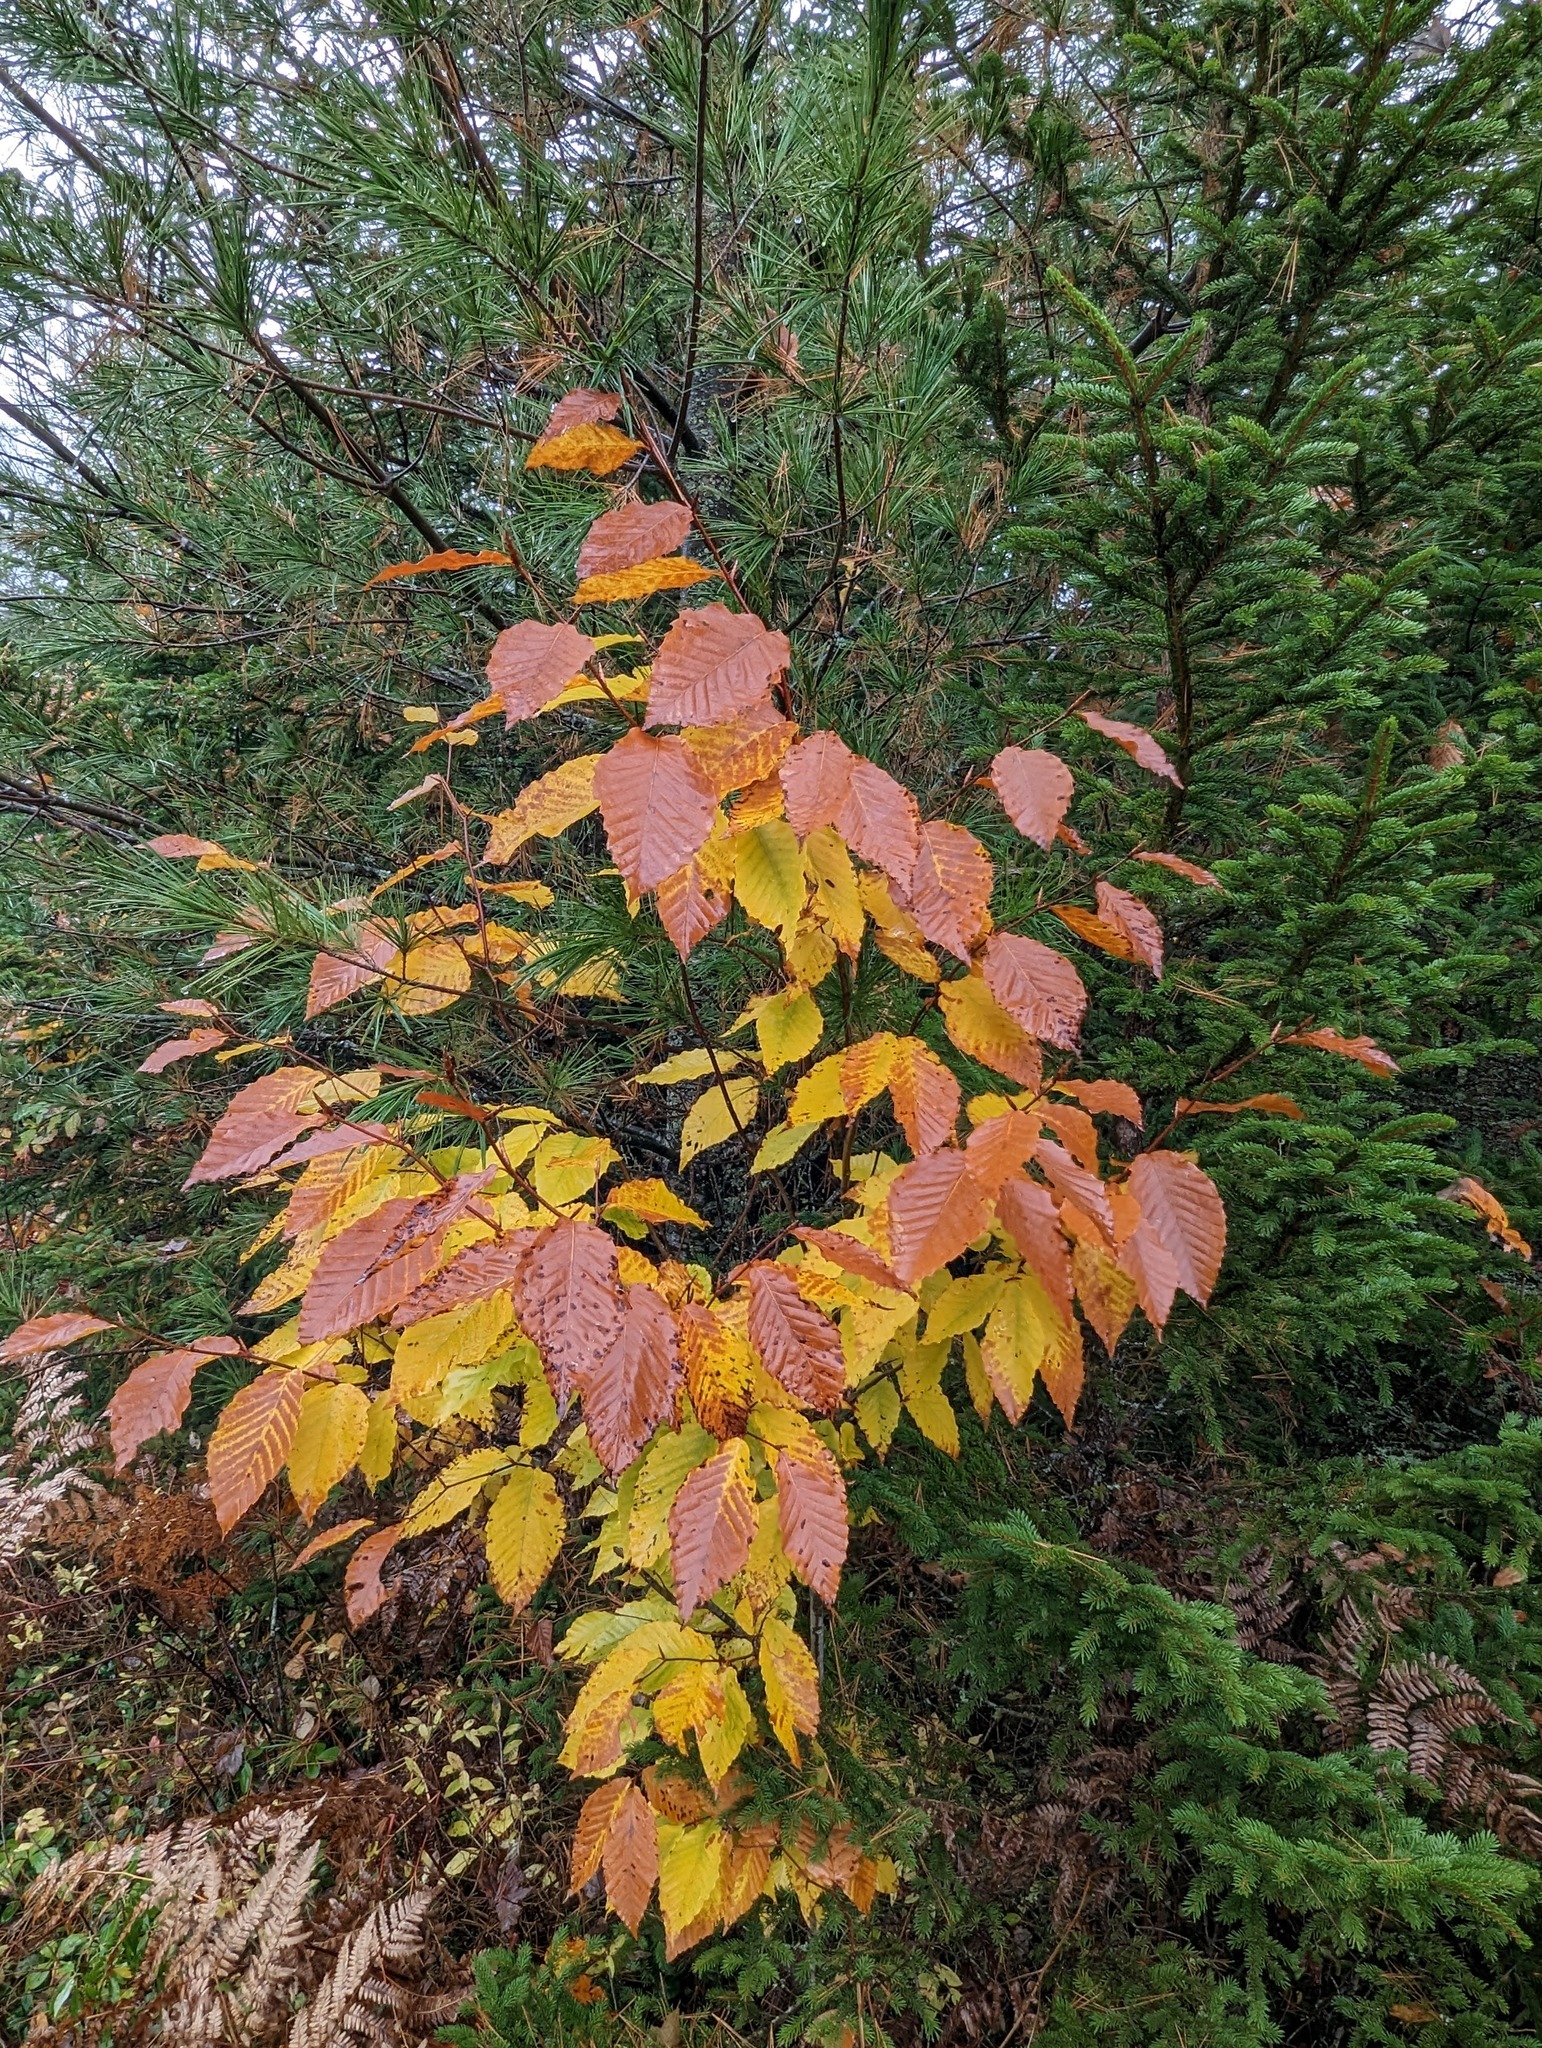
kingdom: Plantae
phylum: Tracheophyta
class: Magnoliopsida
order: Fagales
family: Fagaceae
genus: Fagus
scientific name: Fagus grandifolia
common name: American beech
